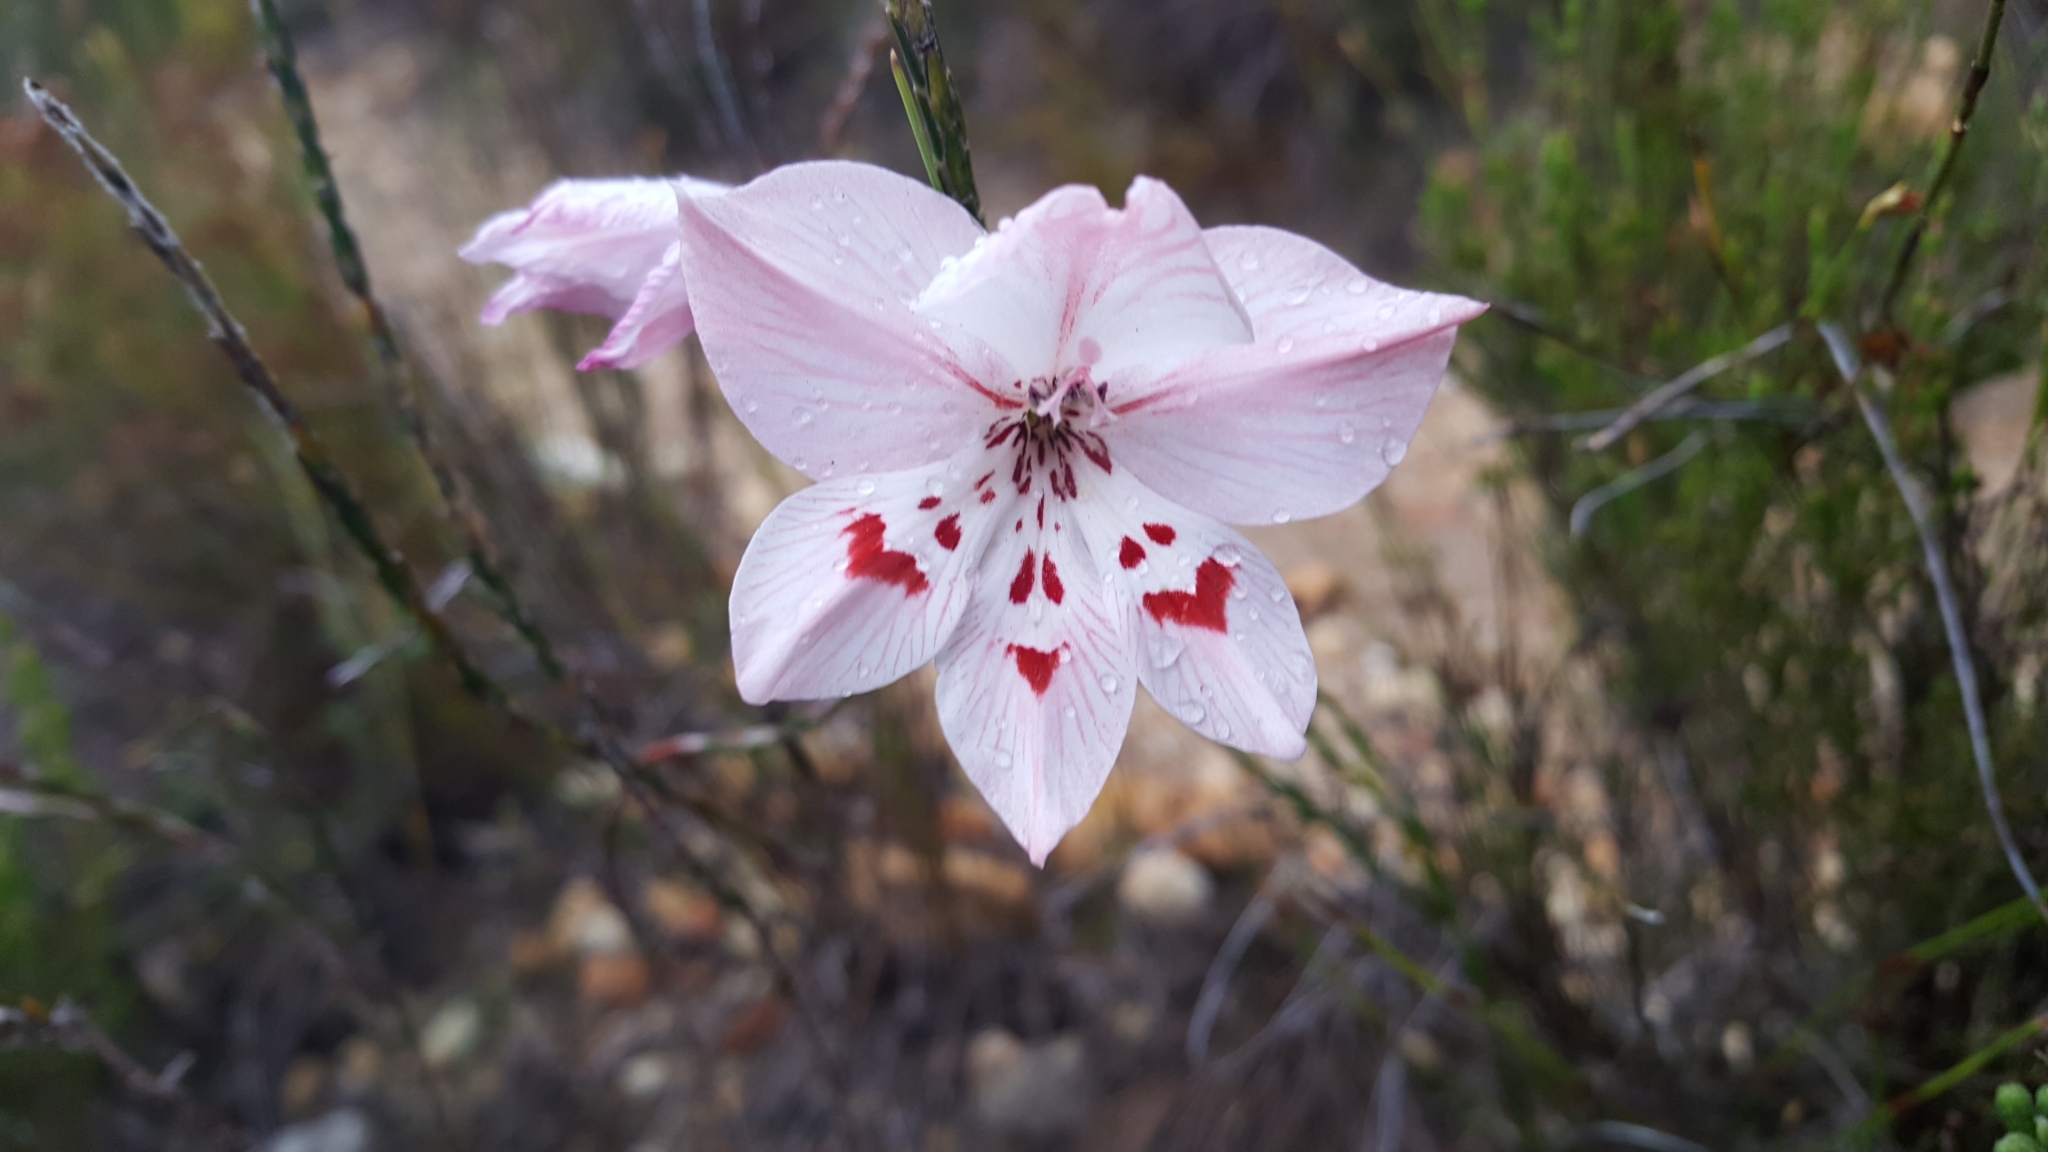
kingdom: Plantae
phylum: Tracheophyta
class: Liliopsida
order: Asparagales
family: Iridaceae
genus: Gladiolus
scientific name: Gladiolus debilis
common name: Painted-lady
